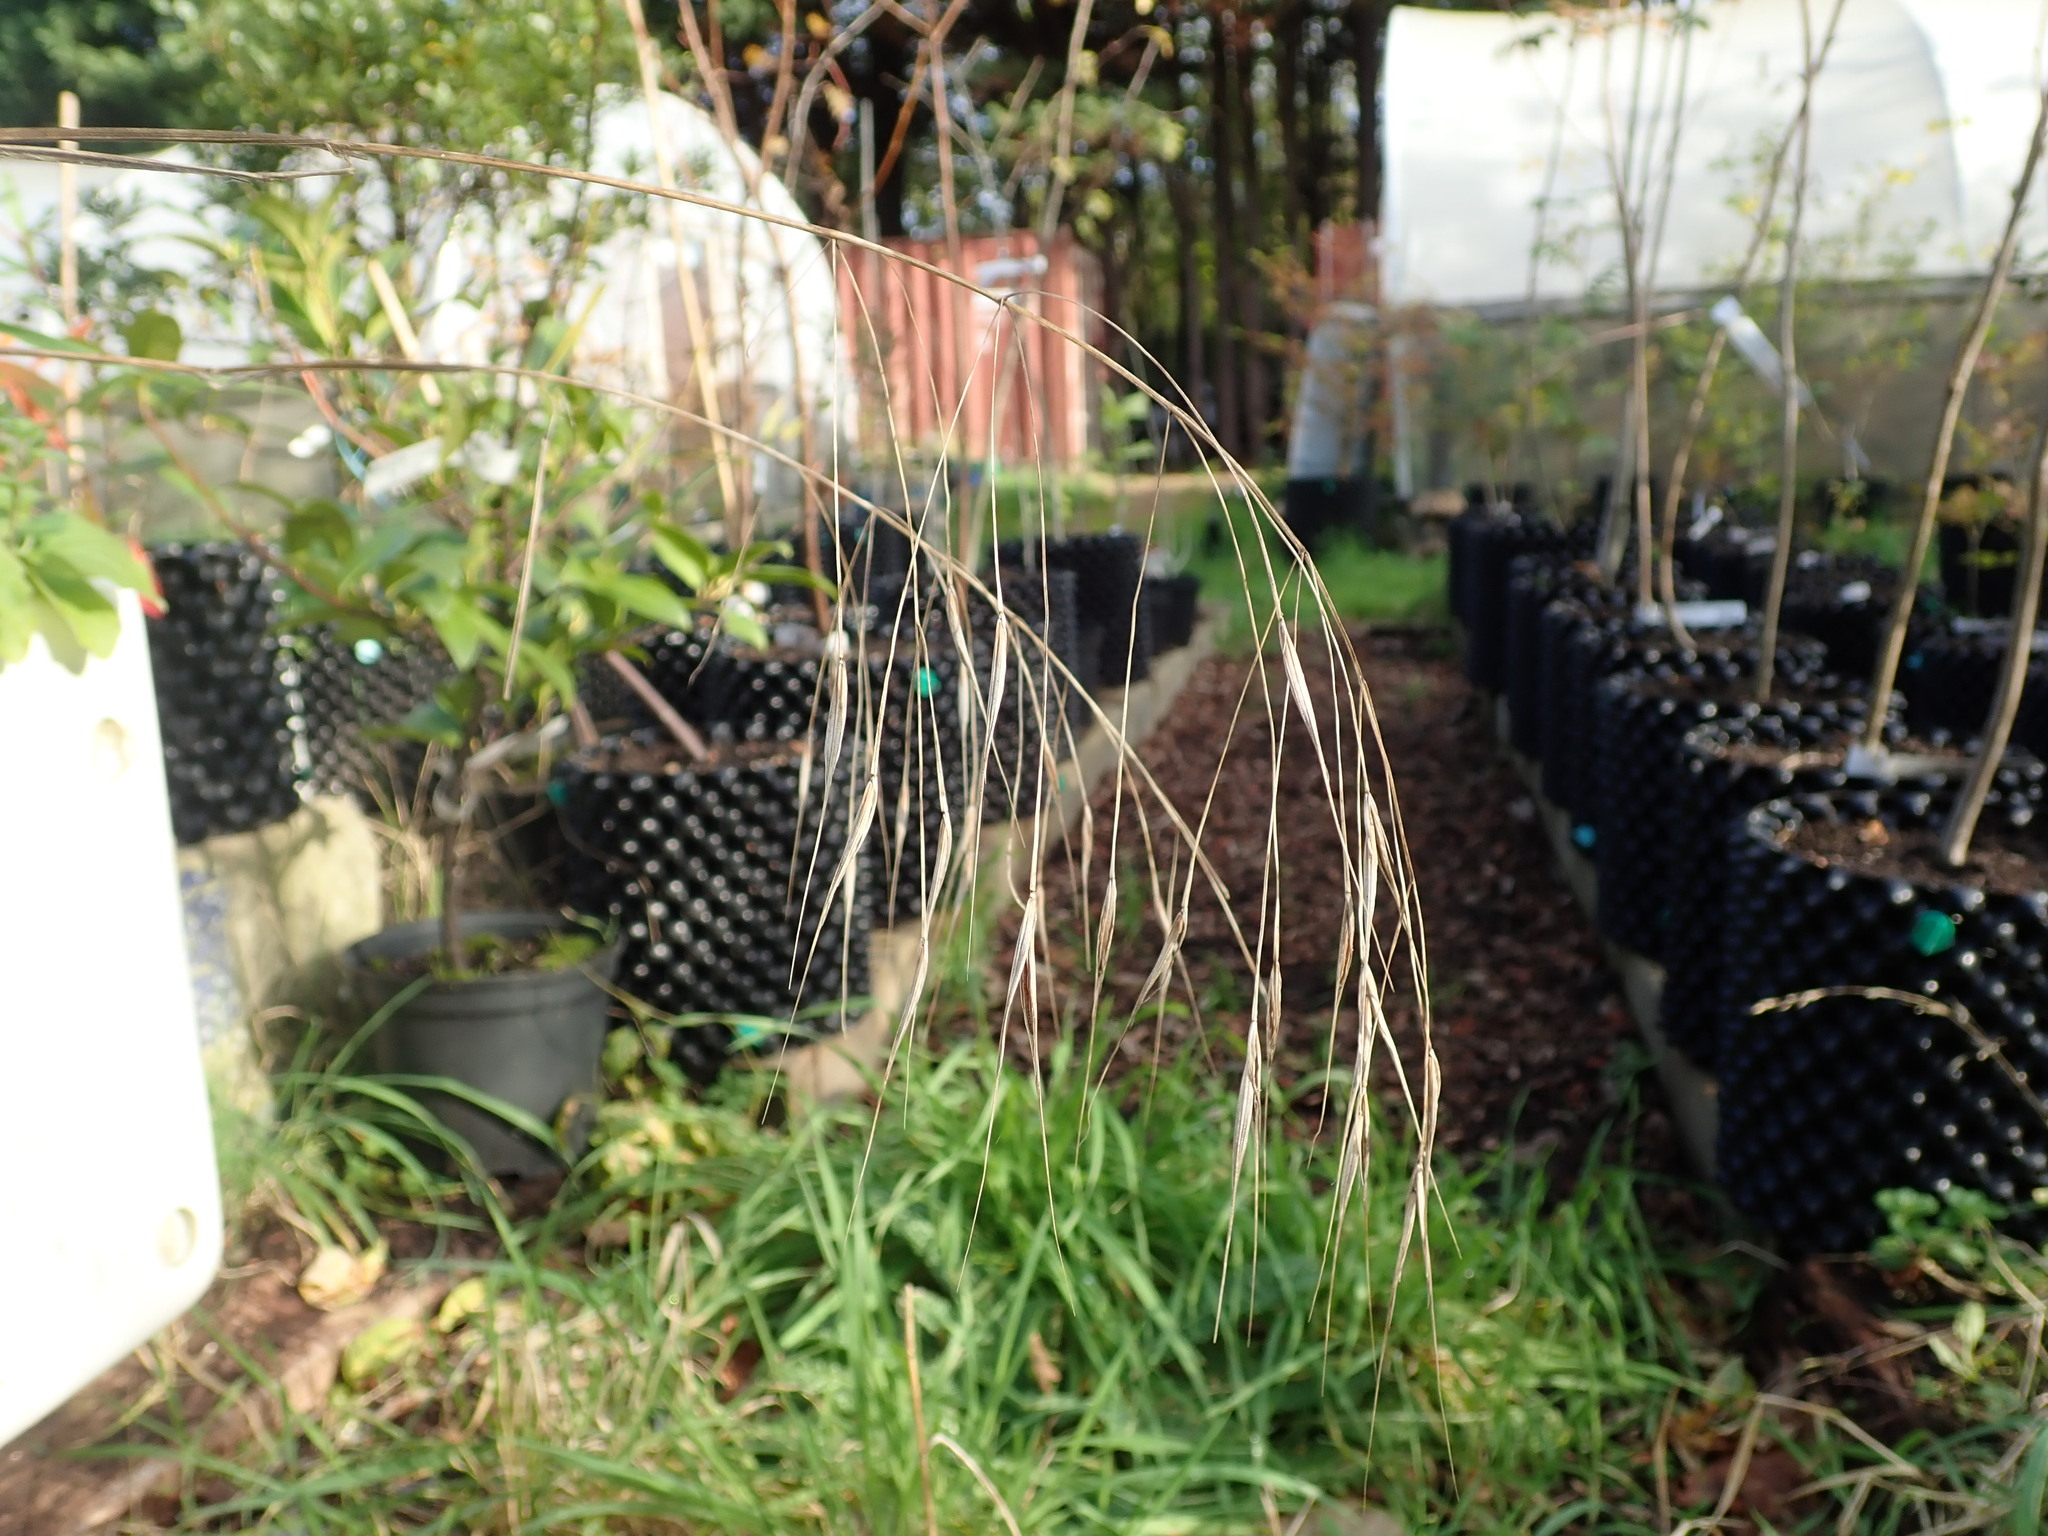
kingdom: Plantae
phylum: Tracheophyta
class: Liliopsida
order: Poales
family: Poaceae
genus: Bromus
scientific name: Bromus sterilis
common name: Poverty brome
